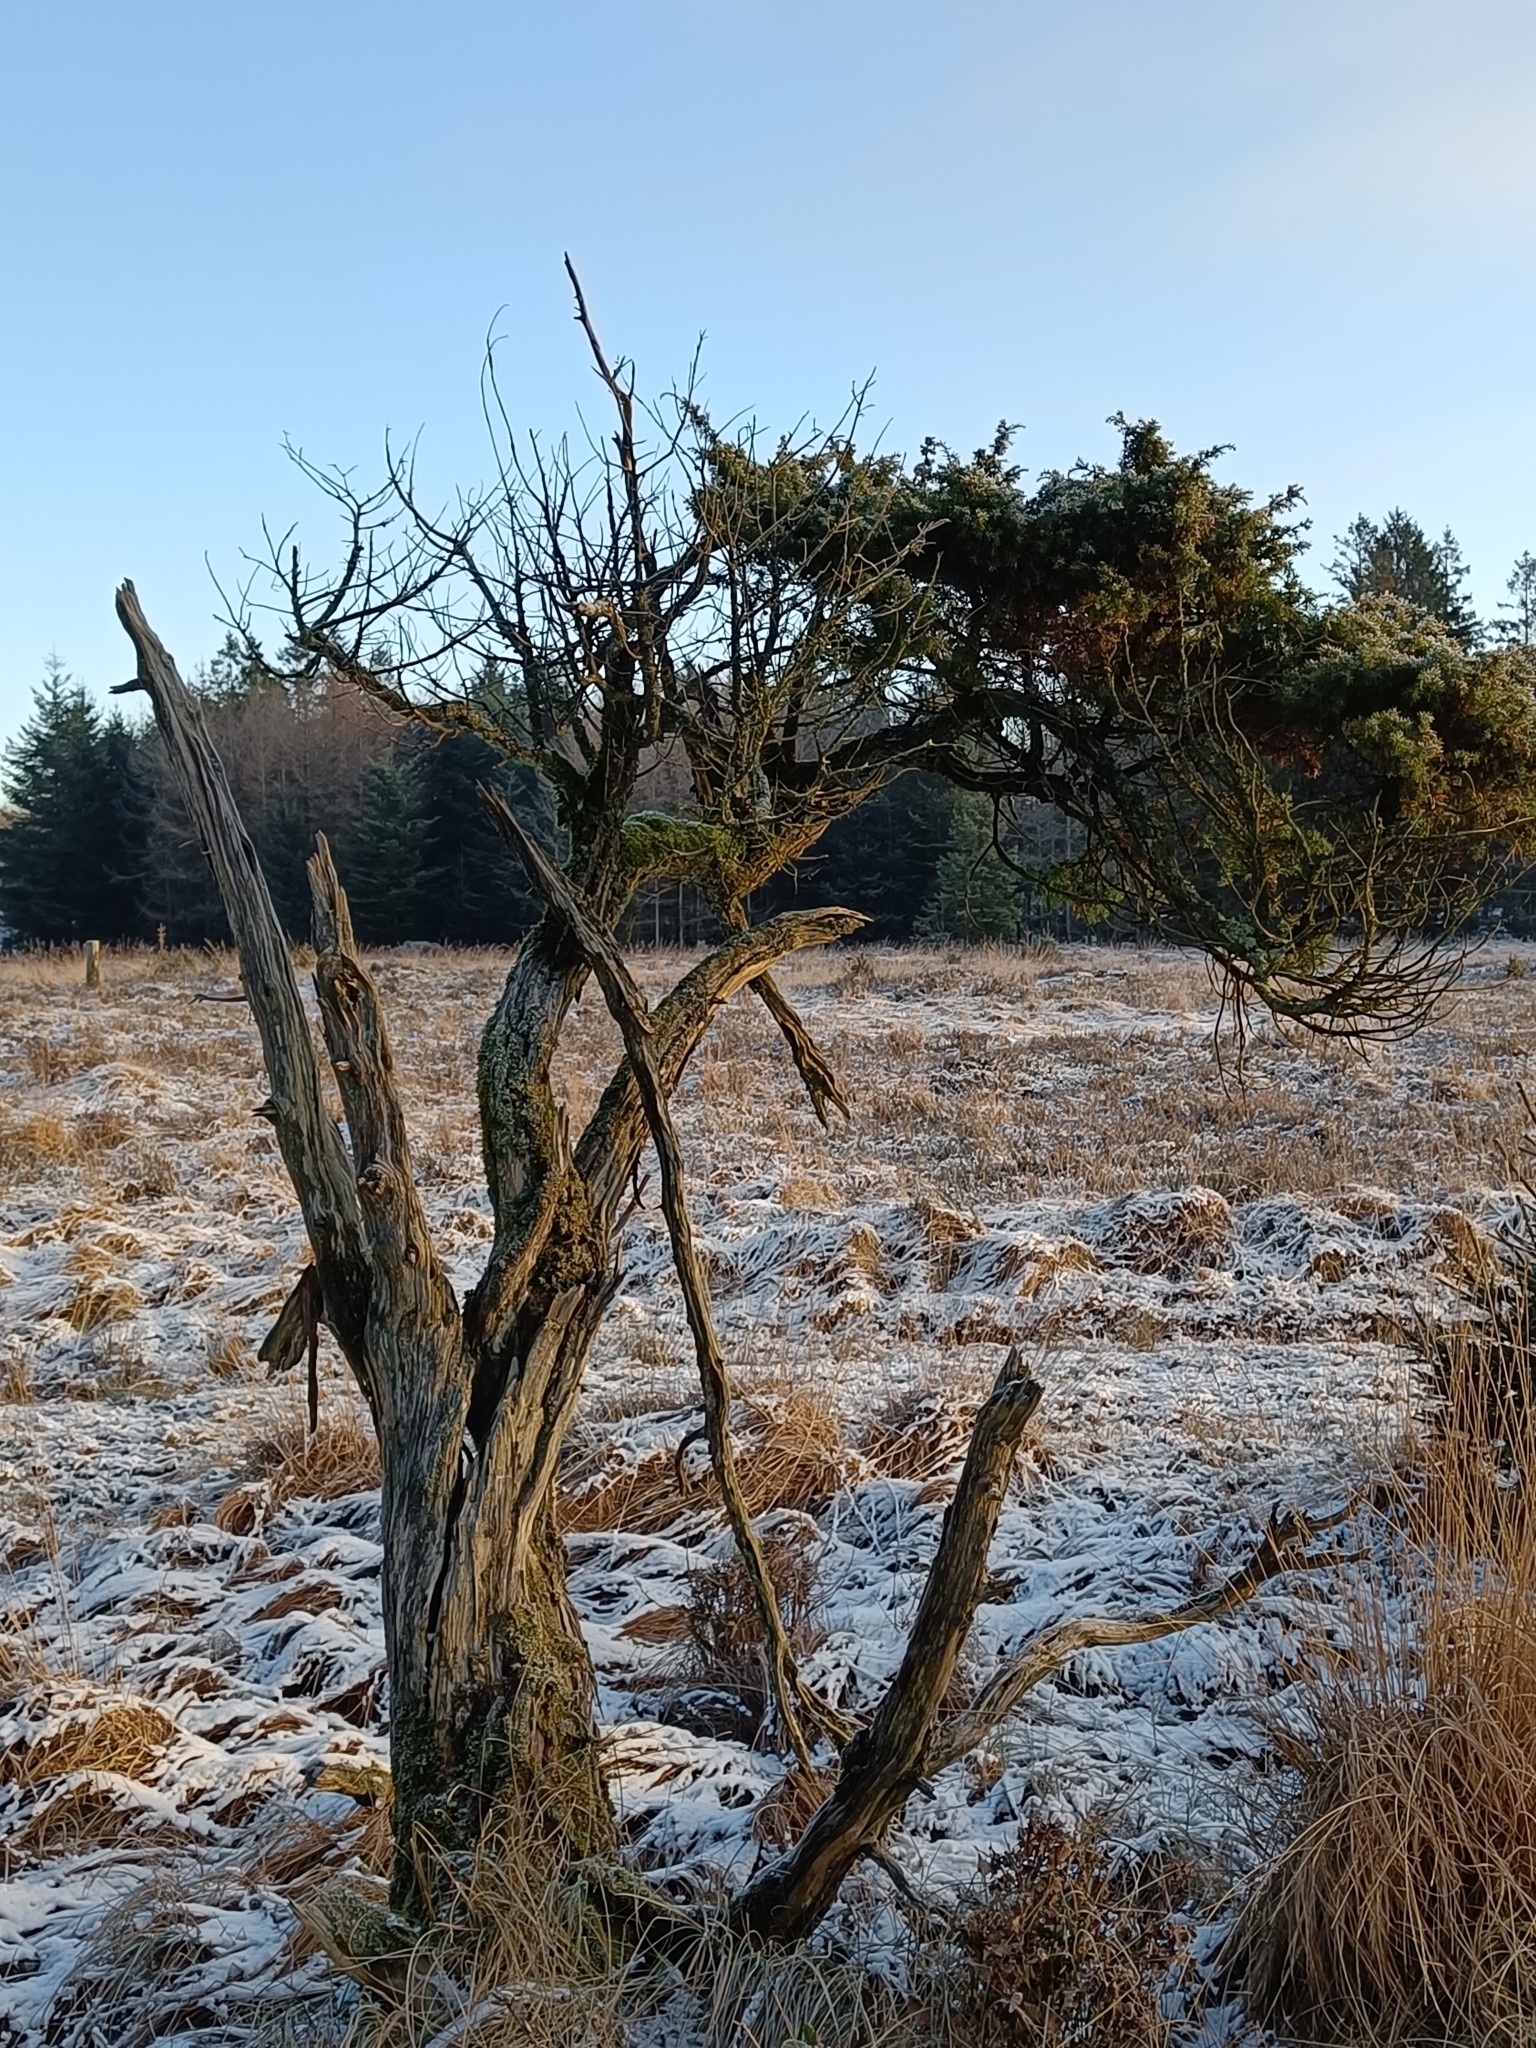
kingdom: Plantae
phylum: Tracheophyta
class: Pinopsida
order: Pinales
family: Cupressaceae
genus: Juniperus
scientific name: Juniperus communis
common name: Common juniper
